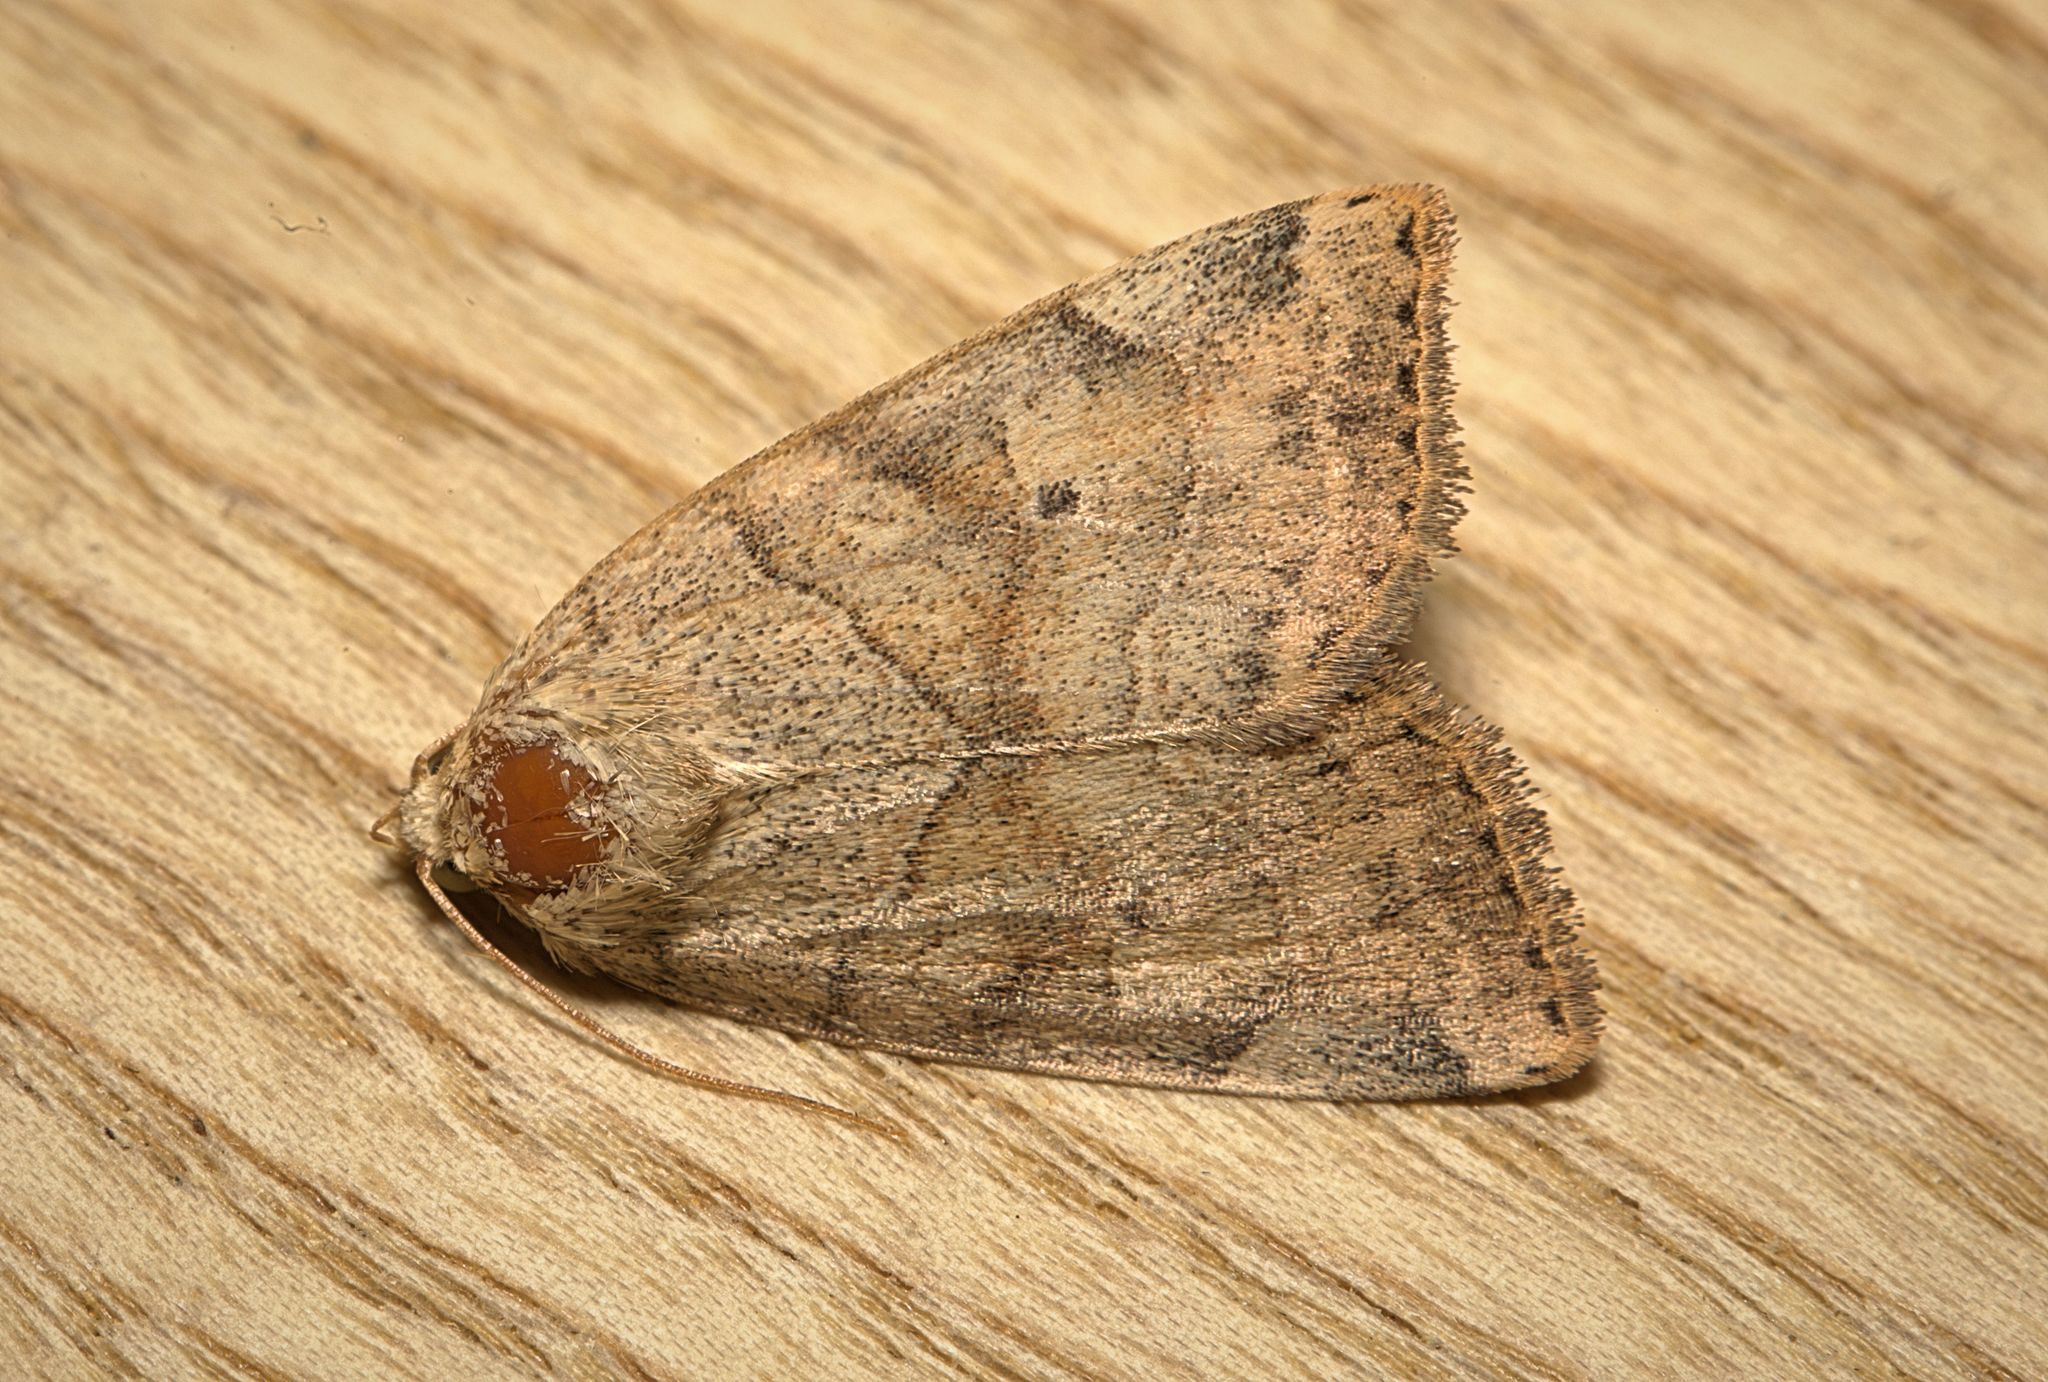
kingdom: Animalia
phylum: Arthropoda
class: Insecta
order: Lepidoptera
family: Noctuidae
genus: Cosmia
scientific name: Cosmia trapezina
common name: Dun-bar
